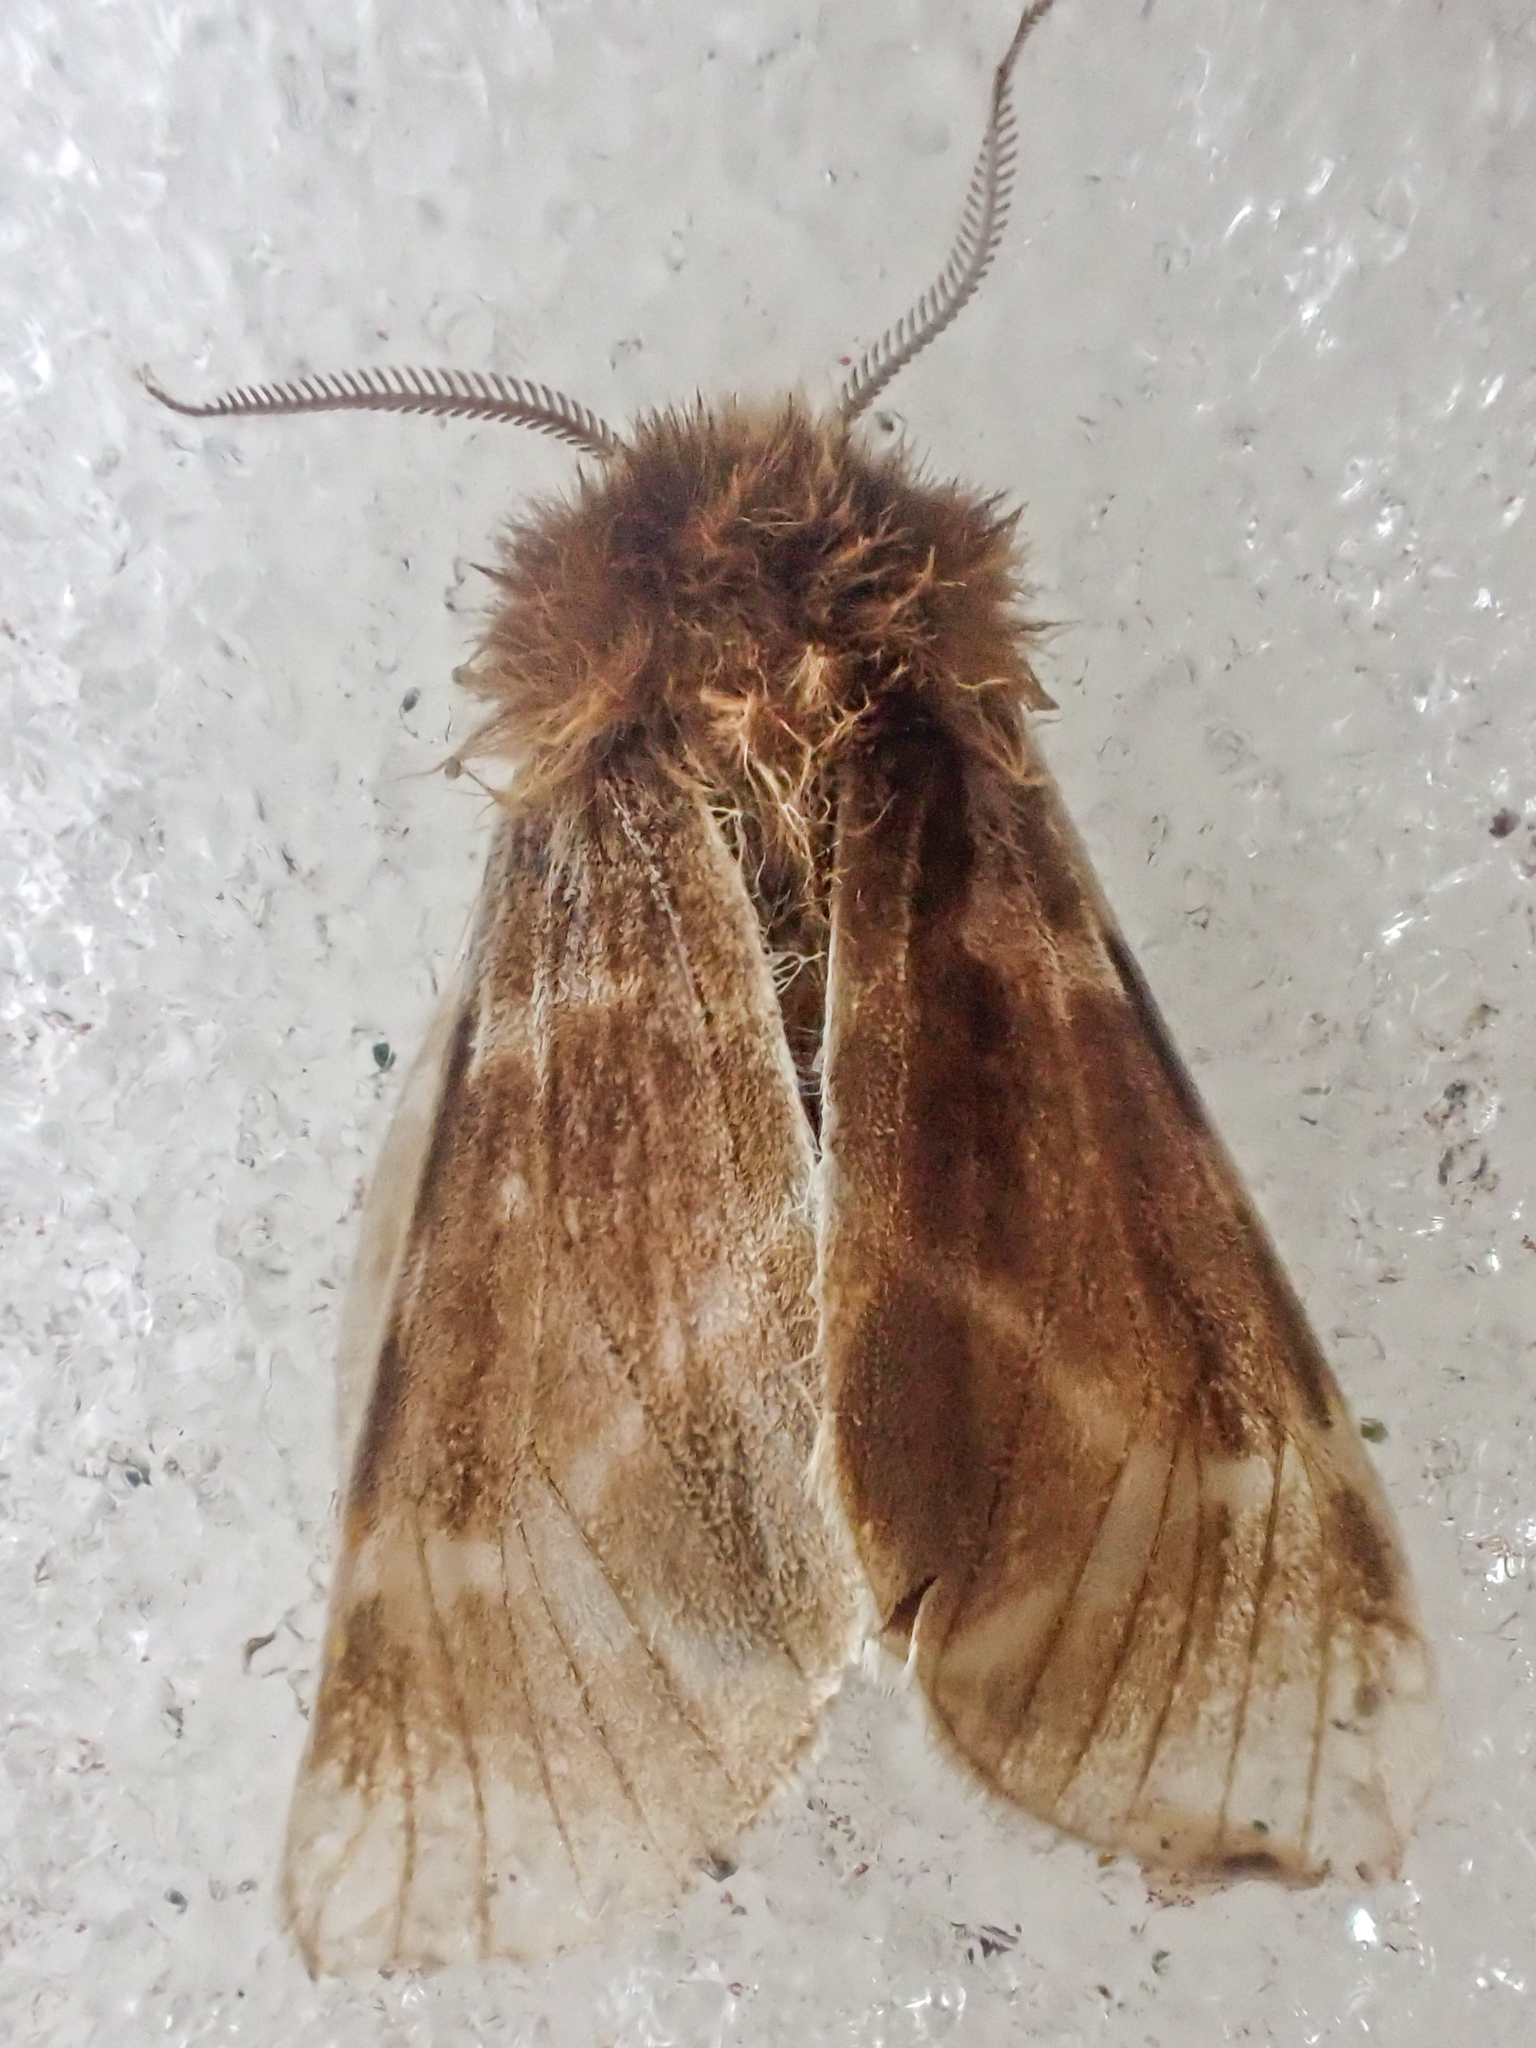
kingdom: Animalia
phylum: Arthropoda
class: Insecta
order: Lepidoptera
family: Erebidae
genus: Chelis
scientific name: Chelis brucei
